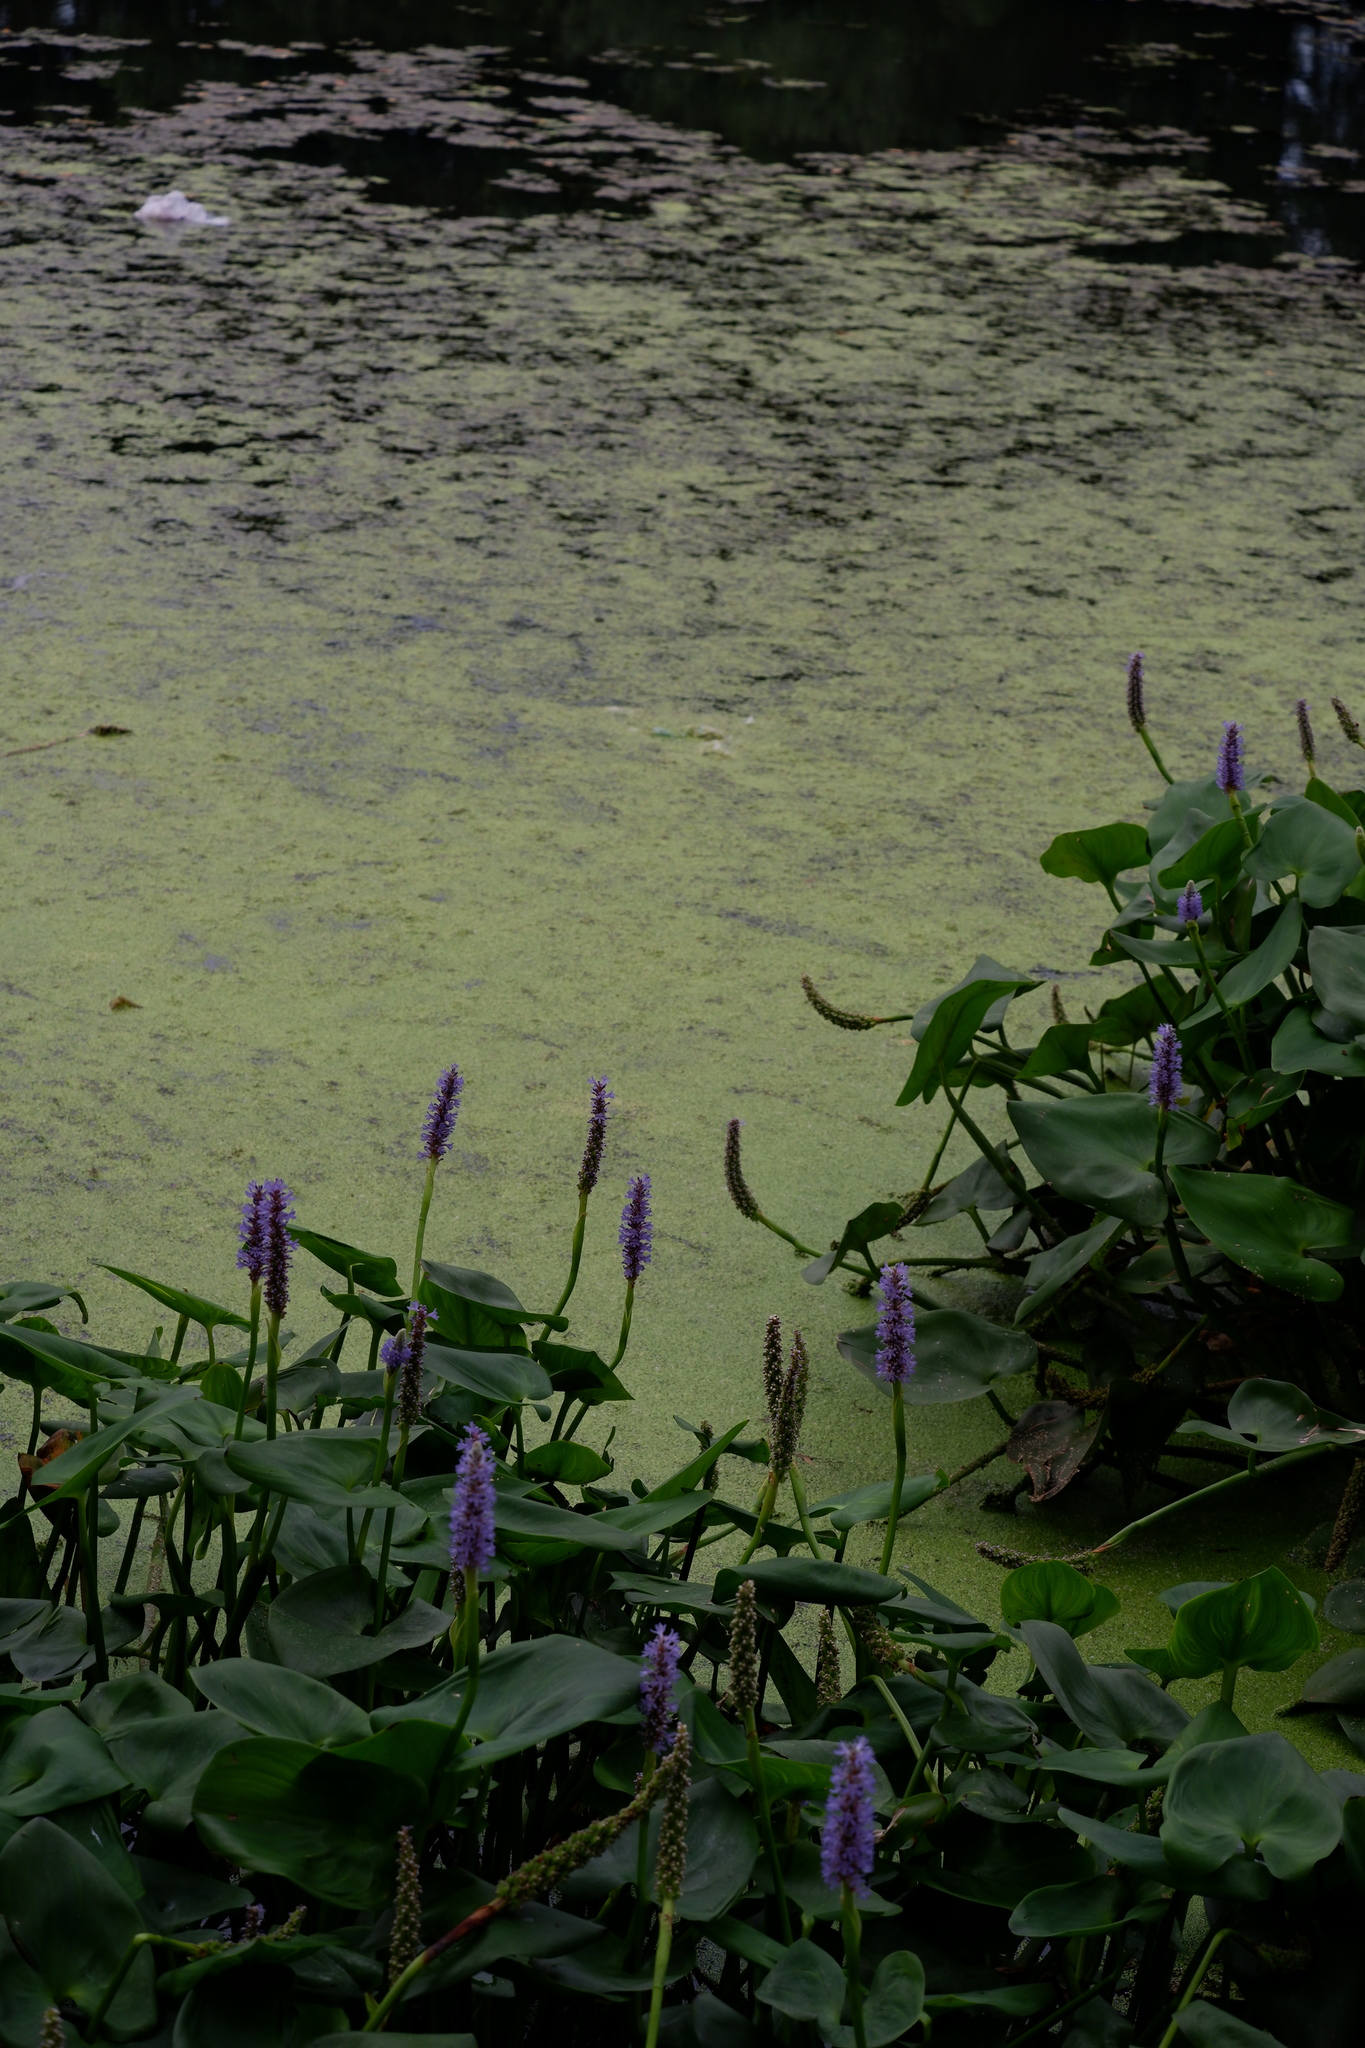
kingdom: Plantae
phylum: Tracheophyta
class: Liliopsida
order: Commelinales
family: Pontederiaceae
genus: Pontederia
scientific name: Pontederia cordata
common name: Pickerelweed
